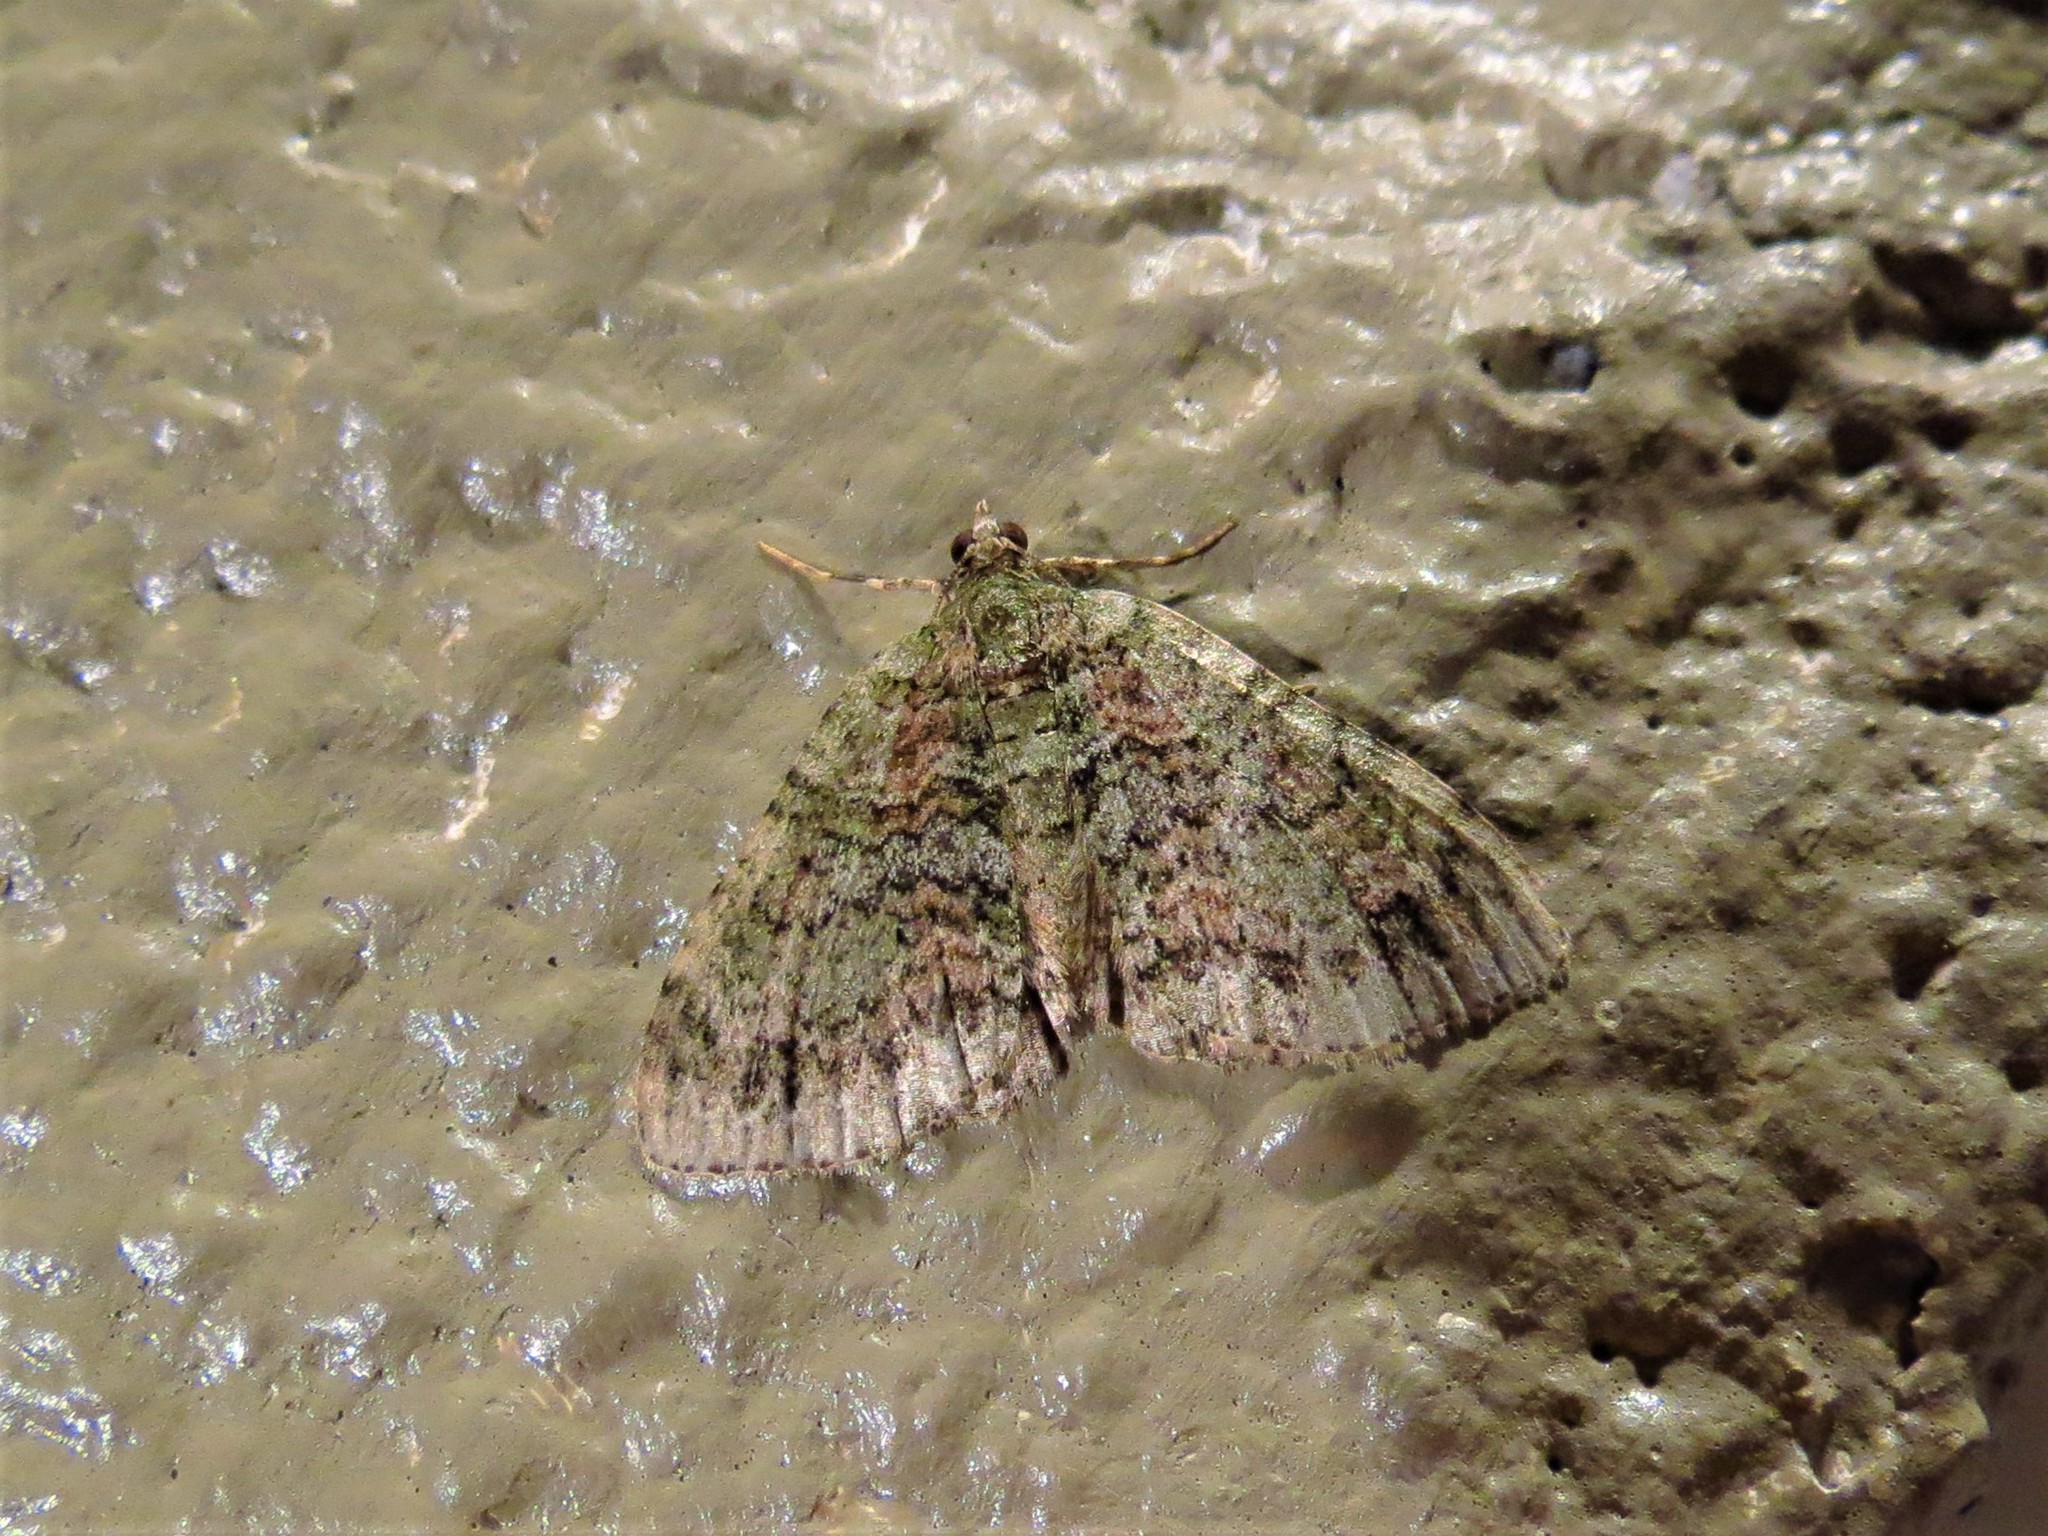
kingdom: Animalia
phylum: Arthropoda
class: Insecta
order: Lepidoptera
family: Geometridae
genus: Hammaptera
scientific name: Hammaptera parinotata
